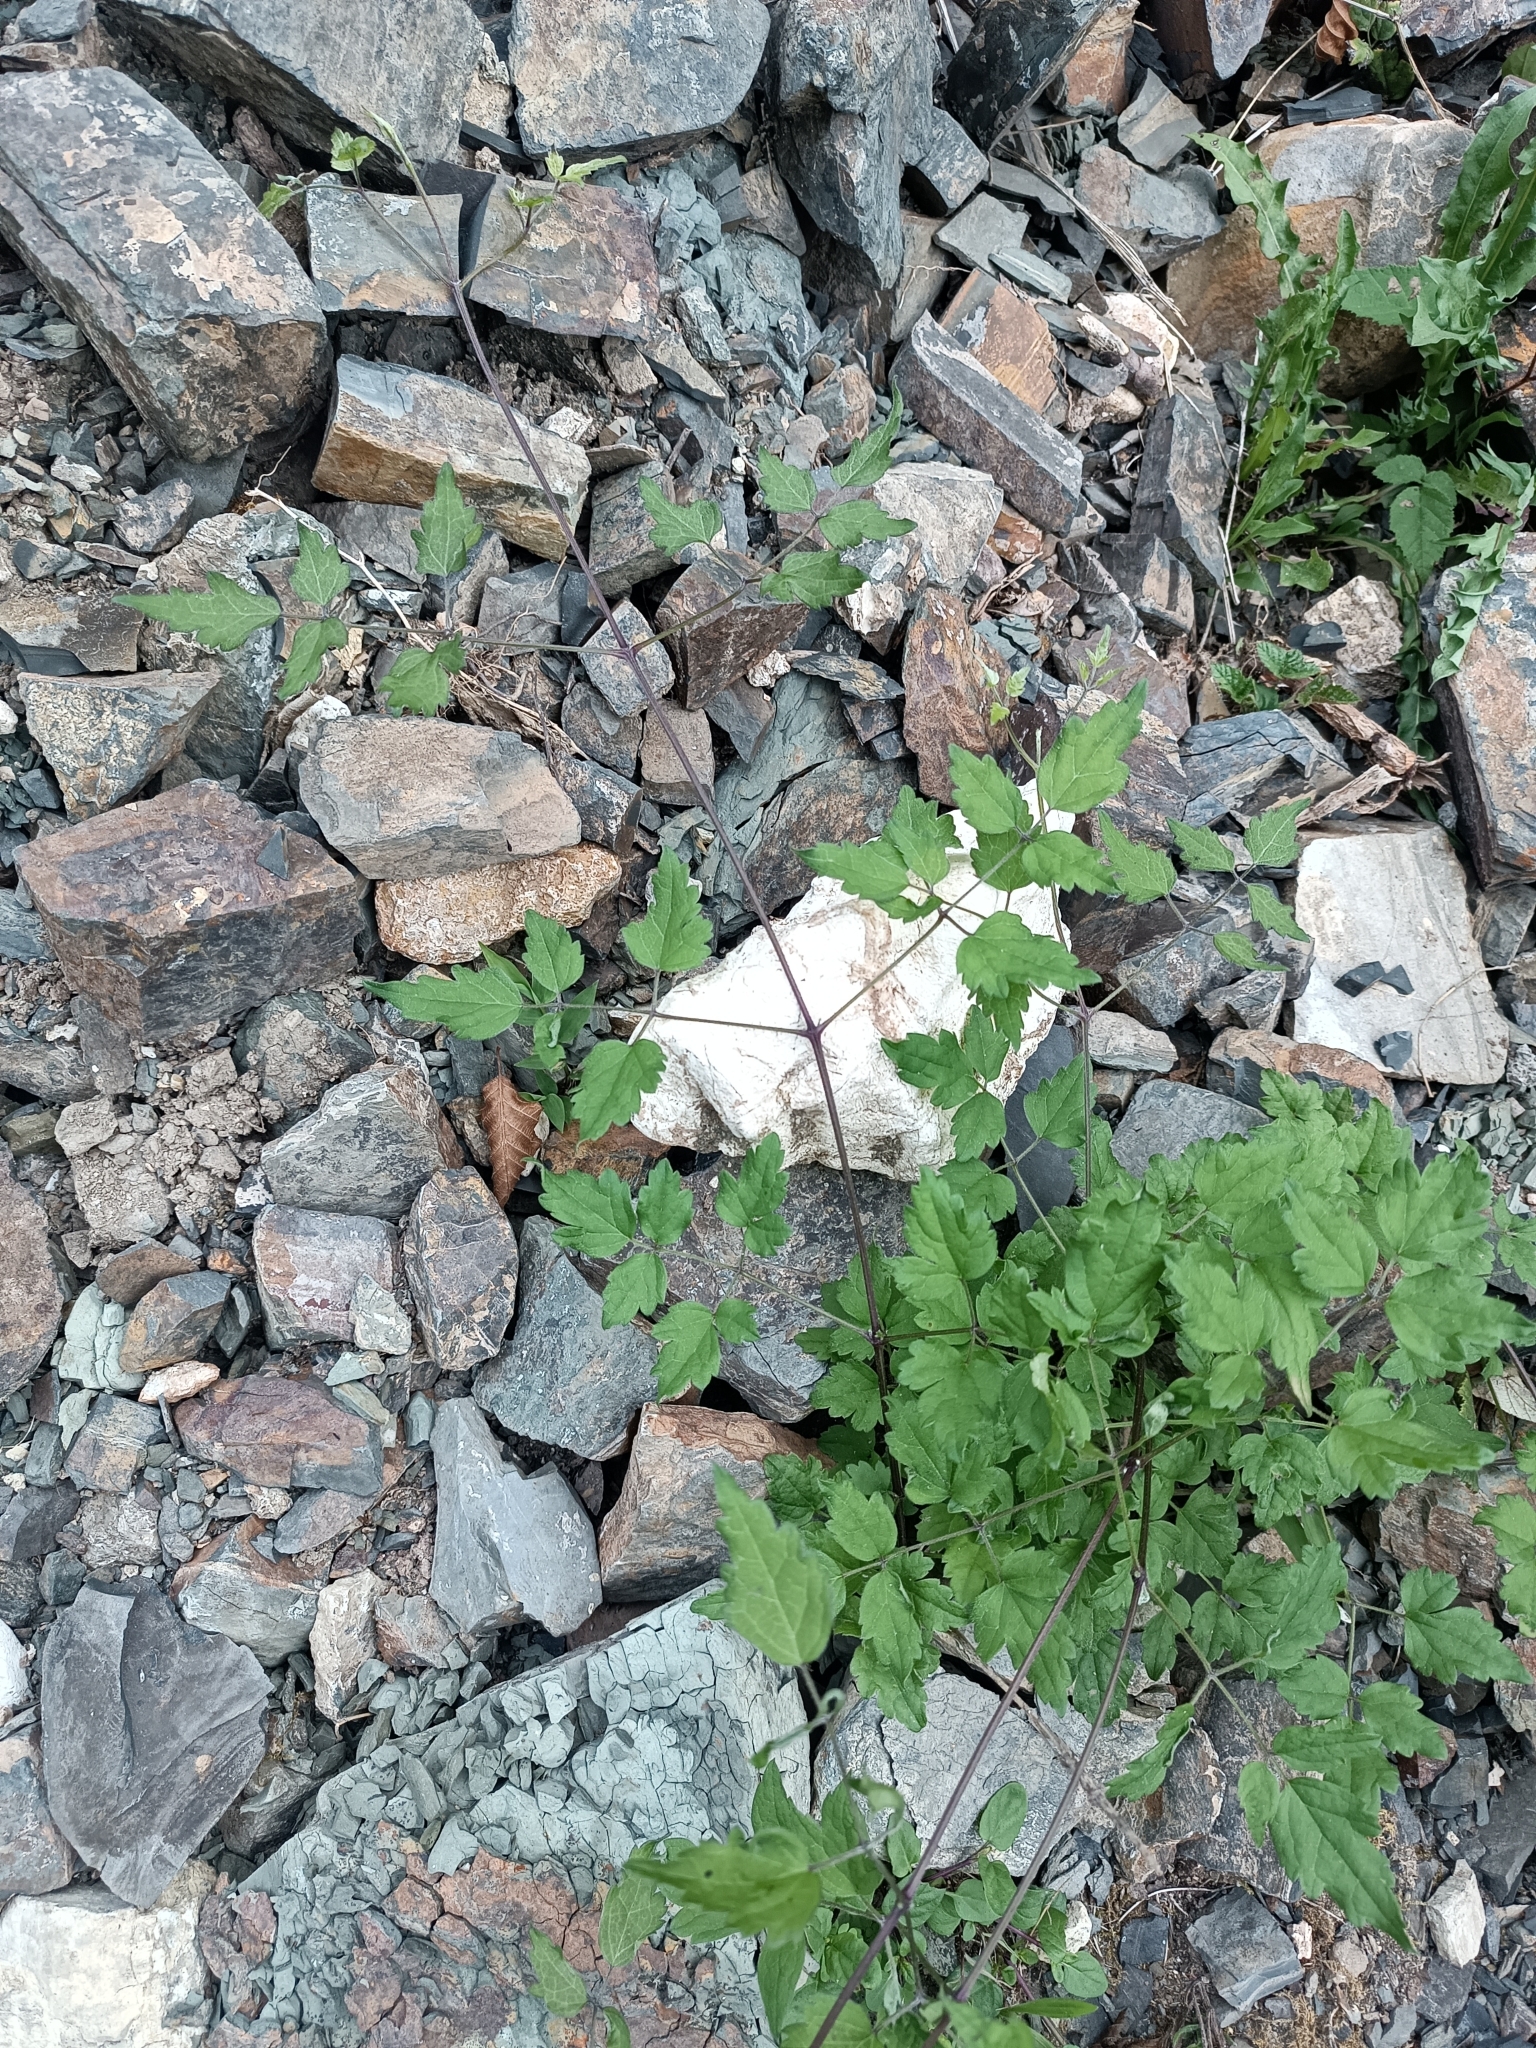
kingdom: Plantae
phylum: Tracheophyta
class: Magnoliopsida
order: Ranunculales
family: Ranunculaceae
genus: Clematis
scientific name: Clematis vitalba
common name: Evergreen clematis
